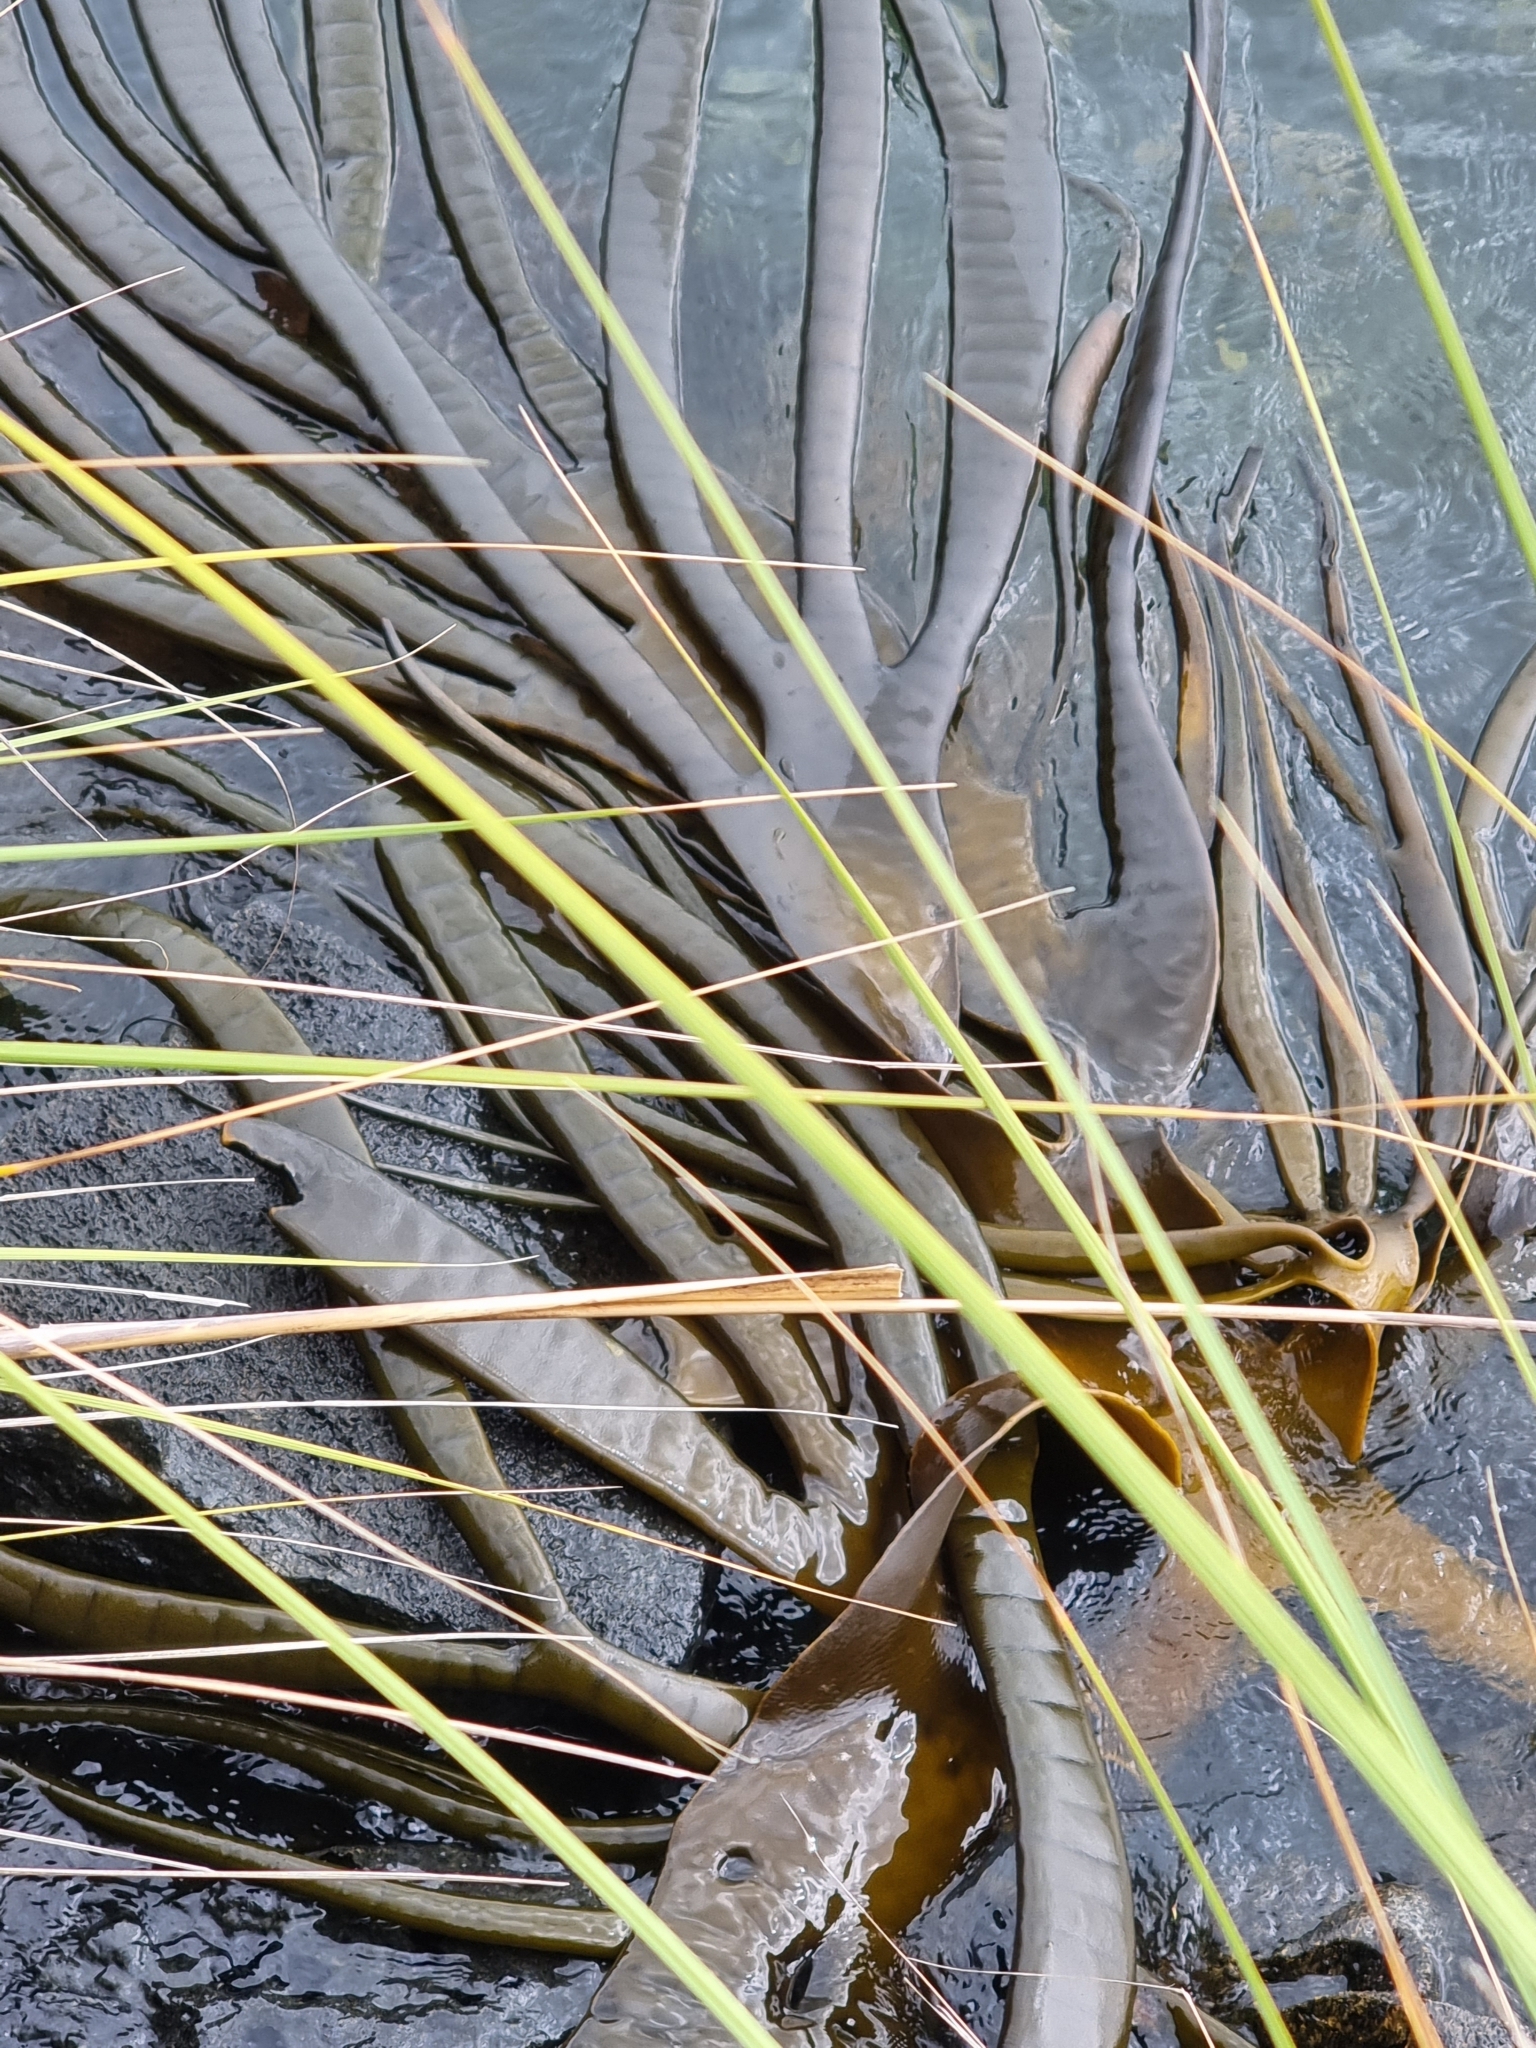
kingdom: Chromista
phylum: Ochrophyta
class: Phaeophyceae
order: Fucales
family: Durvillaeaceae
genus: Durvillaea
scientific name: Durvillaea antarctica
